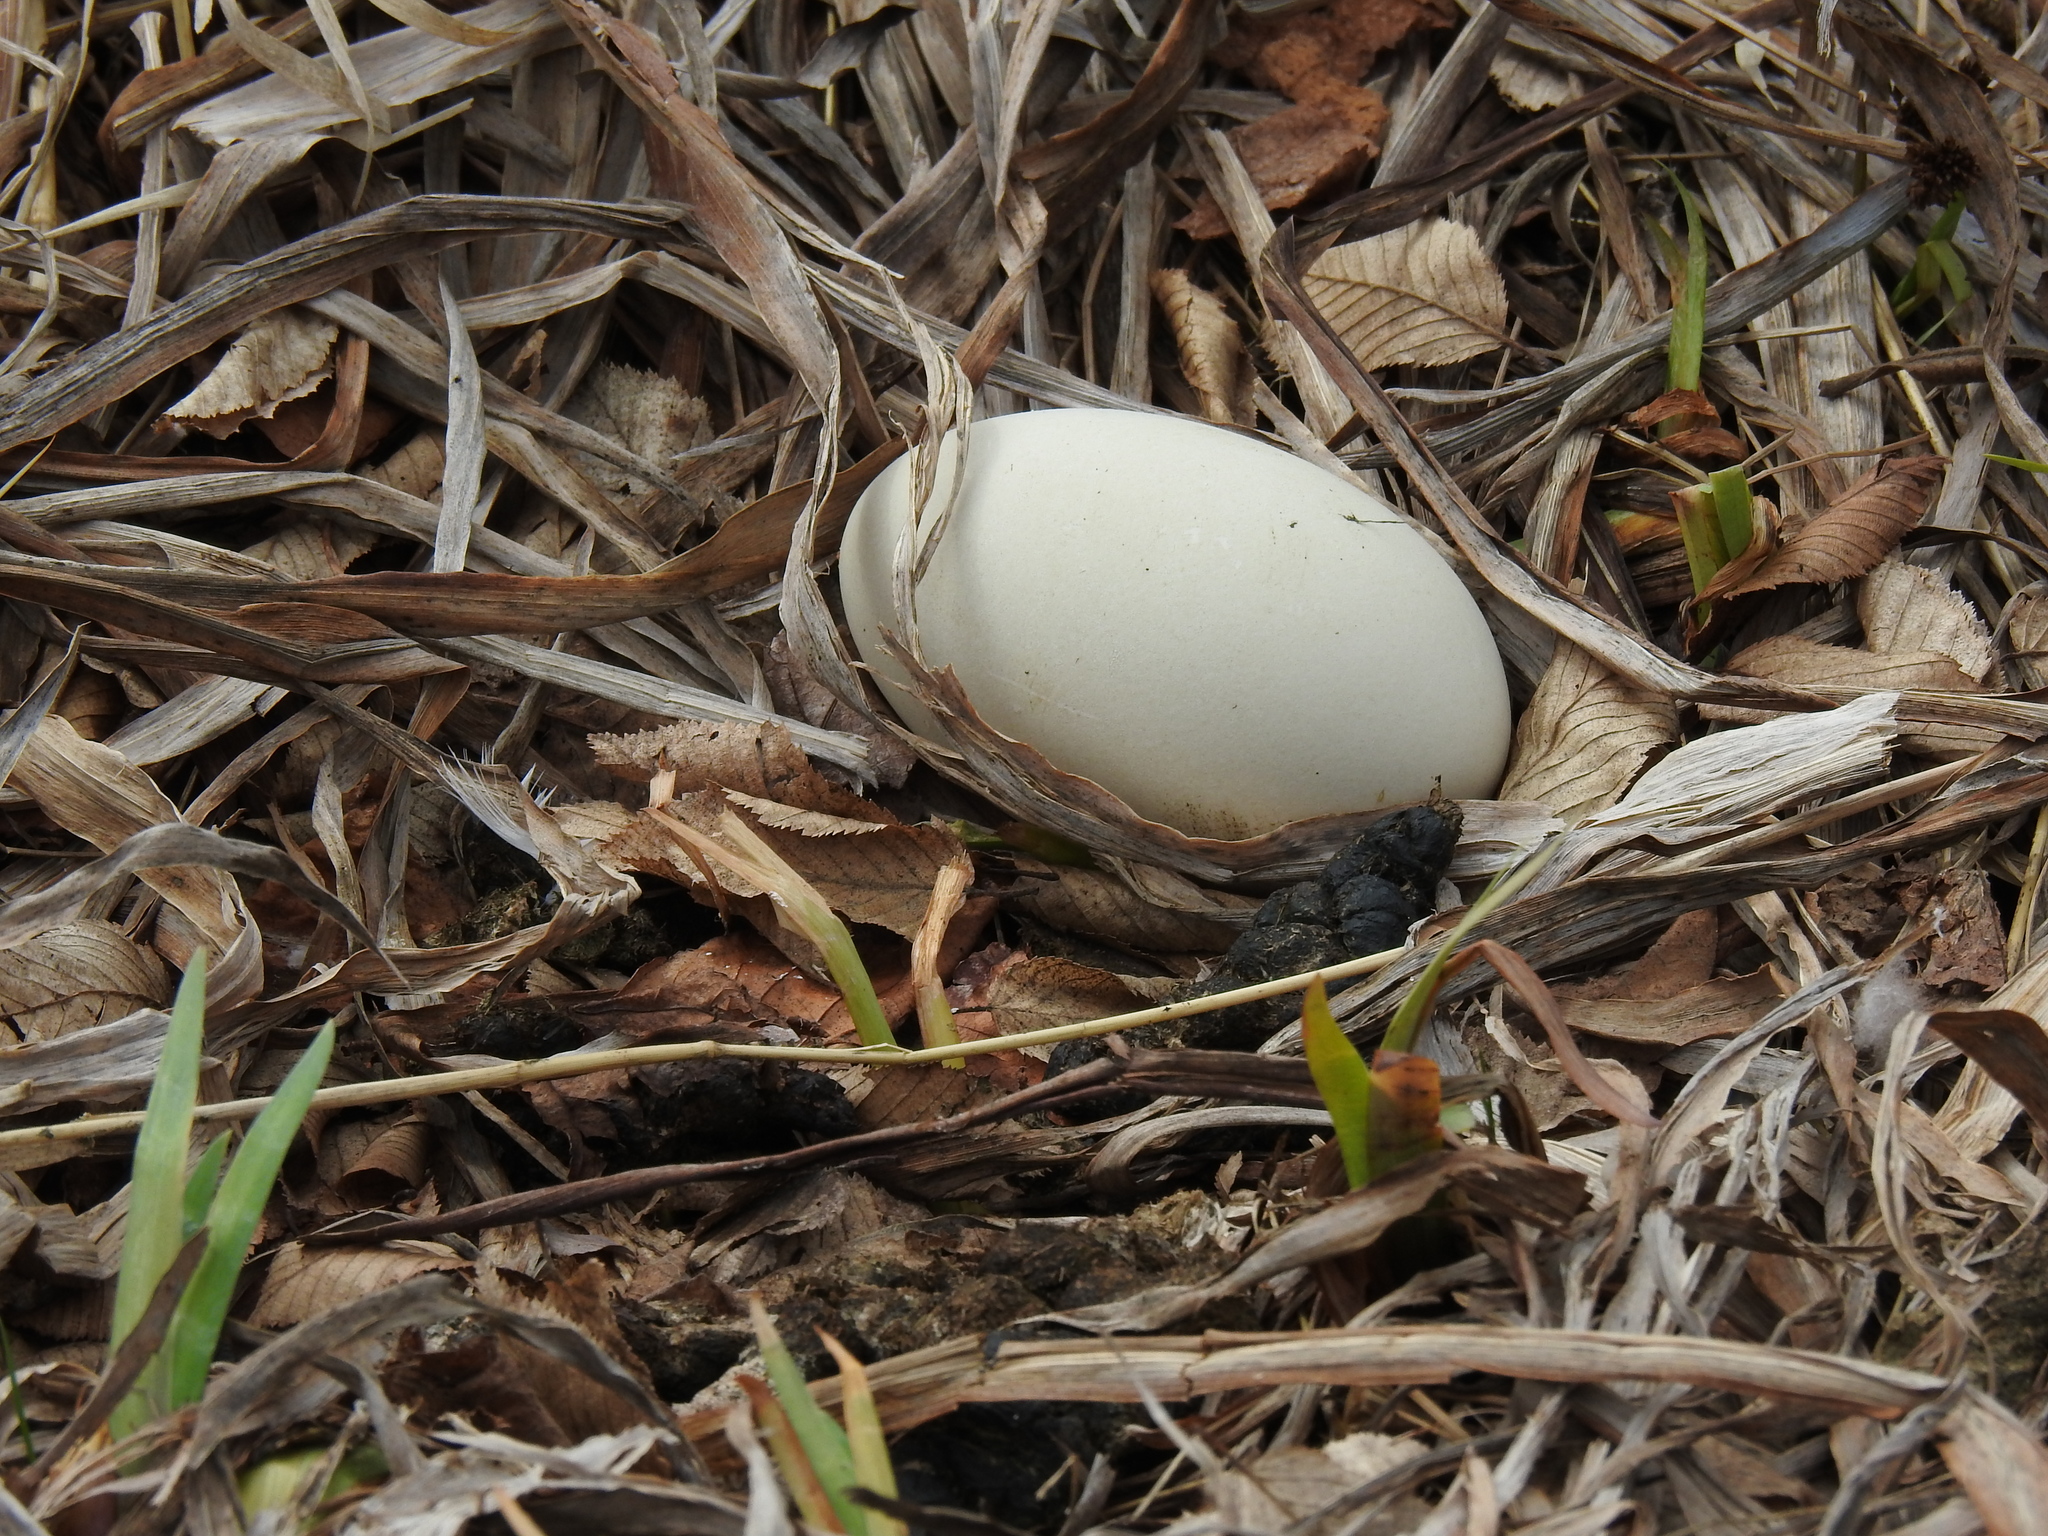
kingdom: Animalia
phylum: Chordata
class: Aves
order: Anseriformes
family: Anatidae
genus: Branta
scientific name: Branta canadensis
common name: Canada goose
